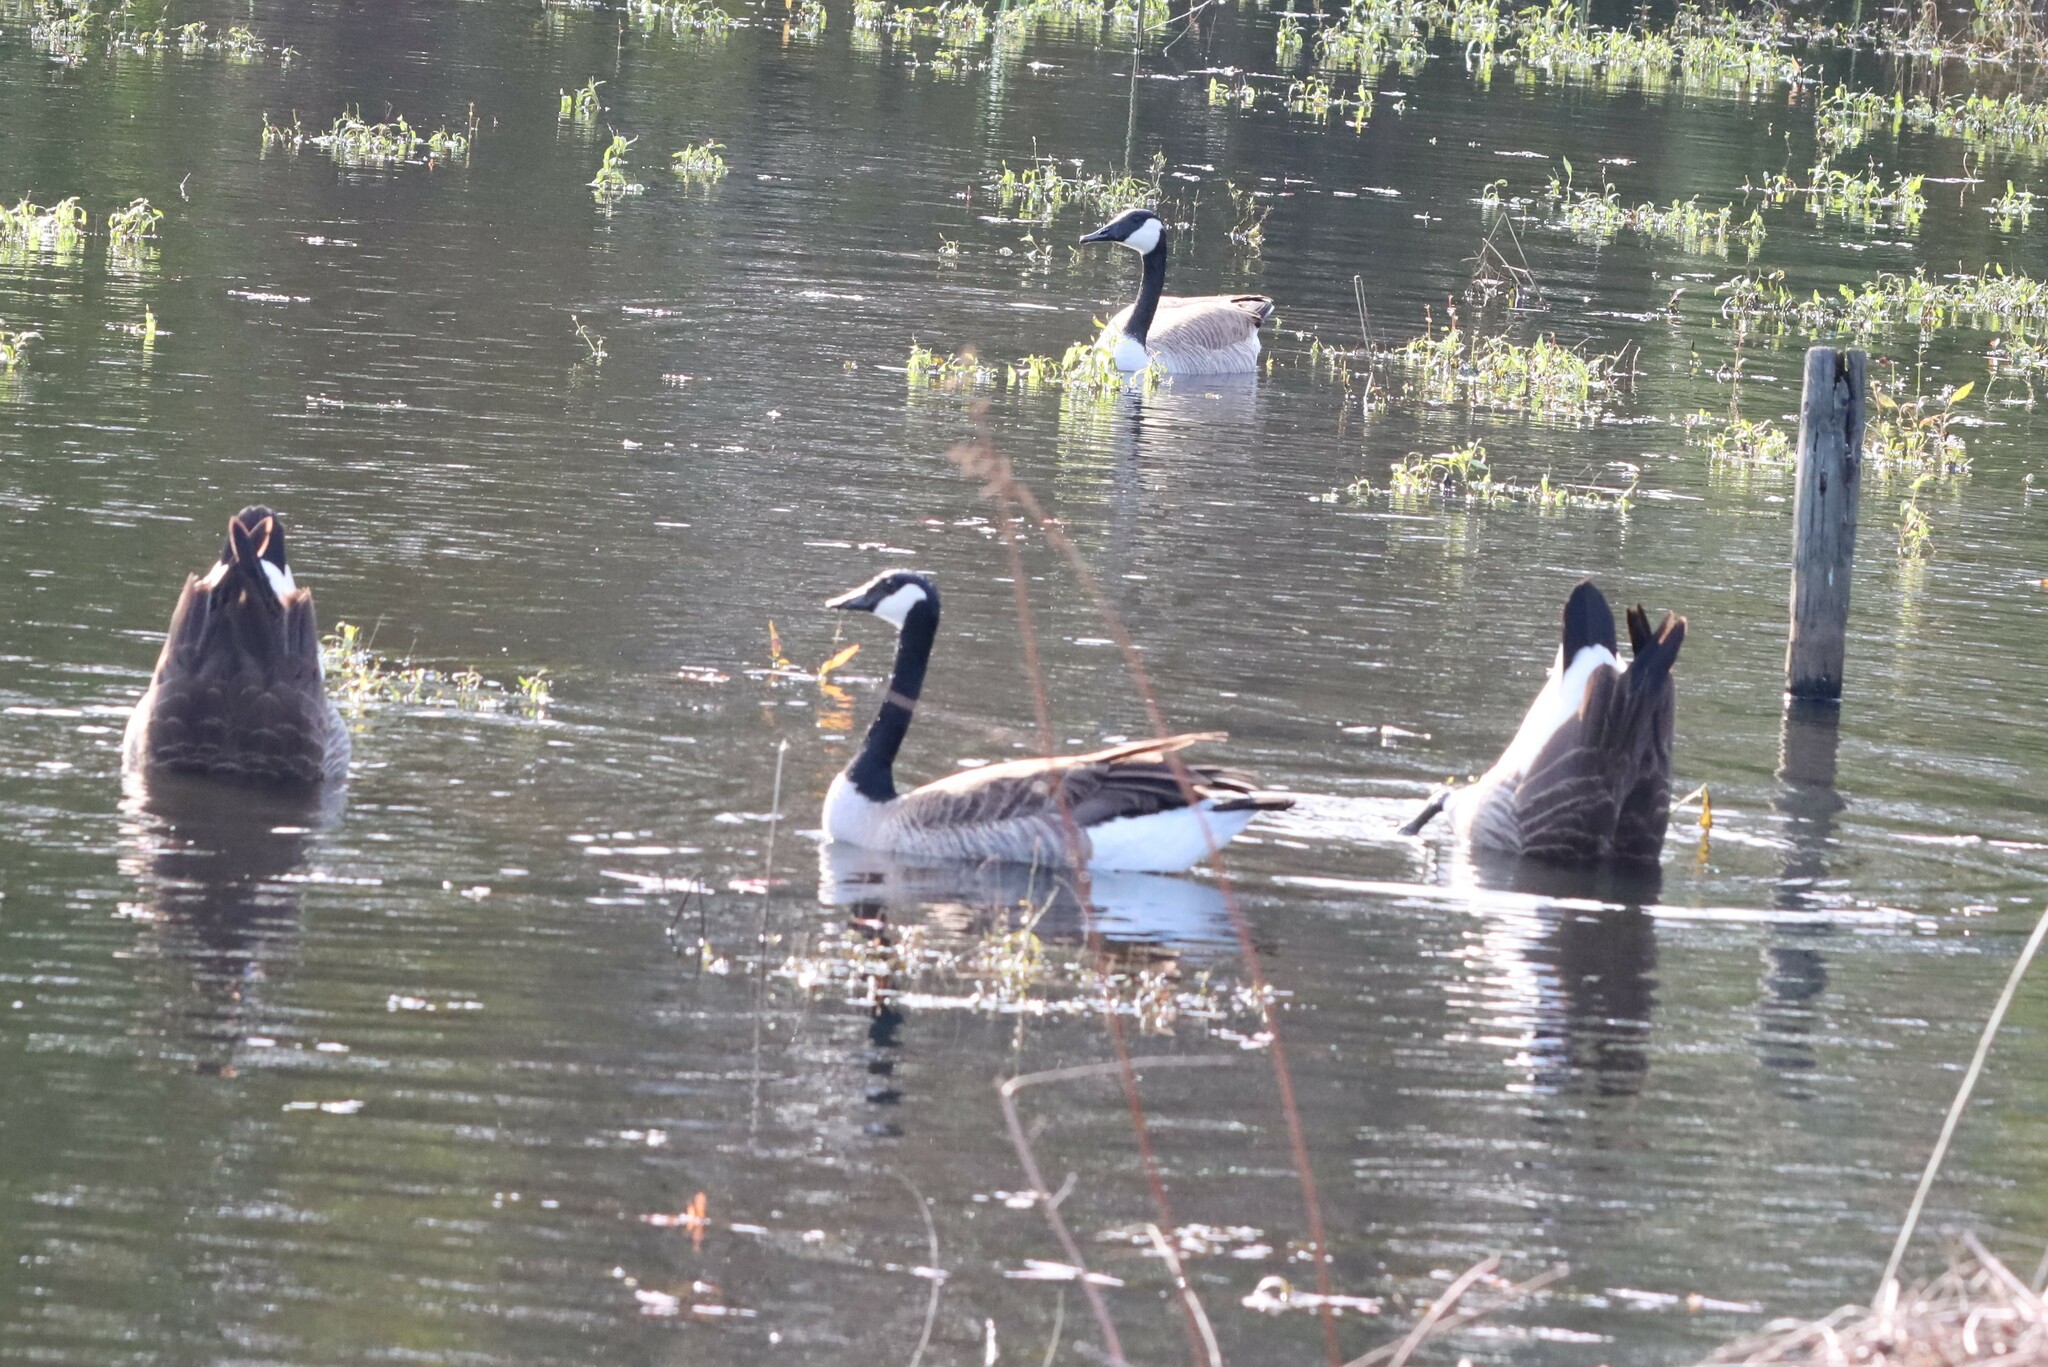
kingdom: Animalia
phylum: Chordata
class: Aves
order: Anseriformes
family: Anatidae
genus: Branta
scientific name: Branta canadensis
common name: Canada goose
